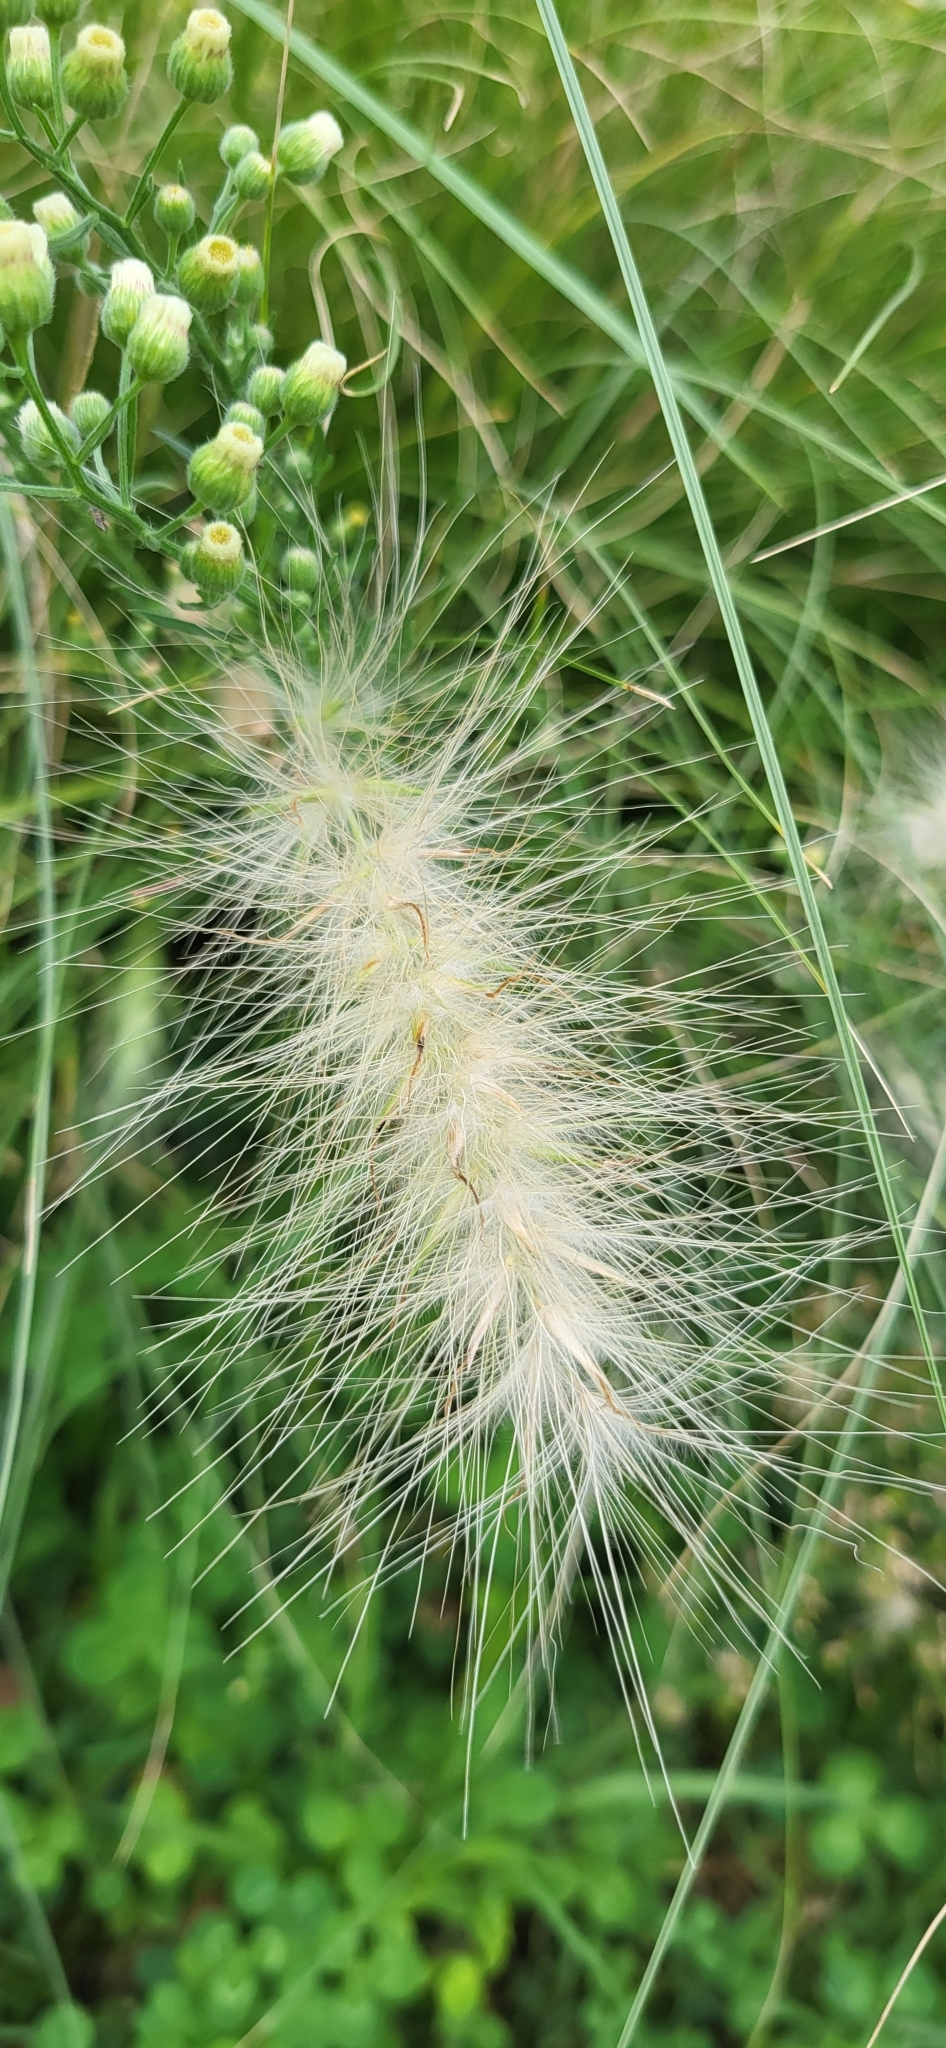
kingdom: Plantae
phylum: Tracheophyta
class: Liliopsida
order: Poales
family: Poaceae
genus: Cenchrus
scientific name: Cenchrus longisetus
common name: Feathertop
